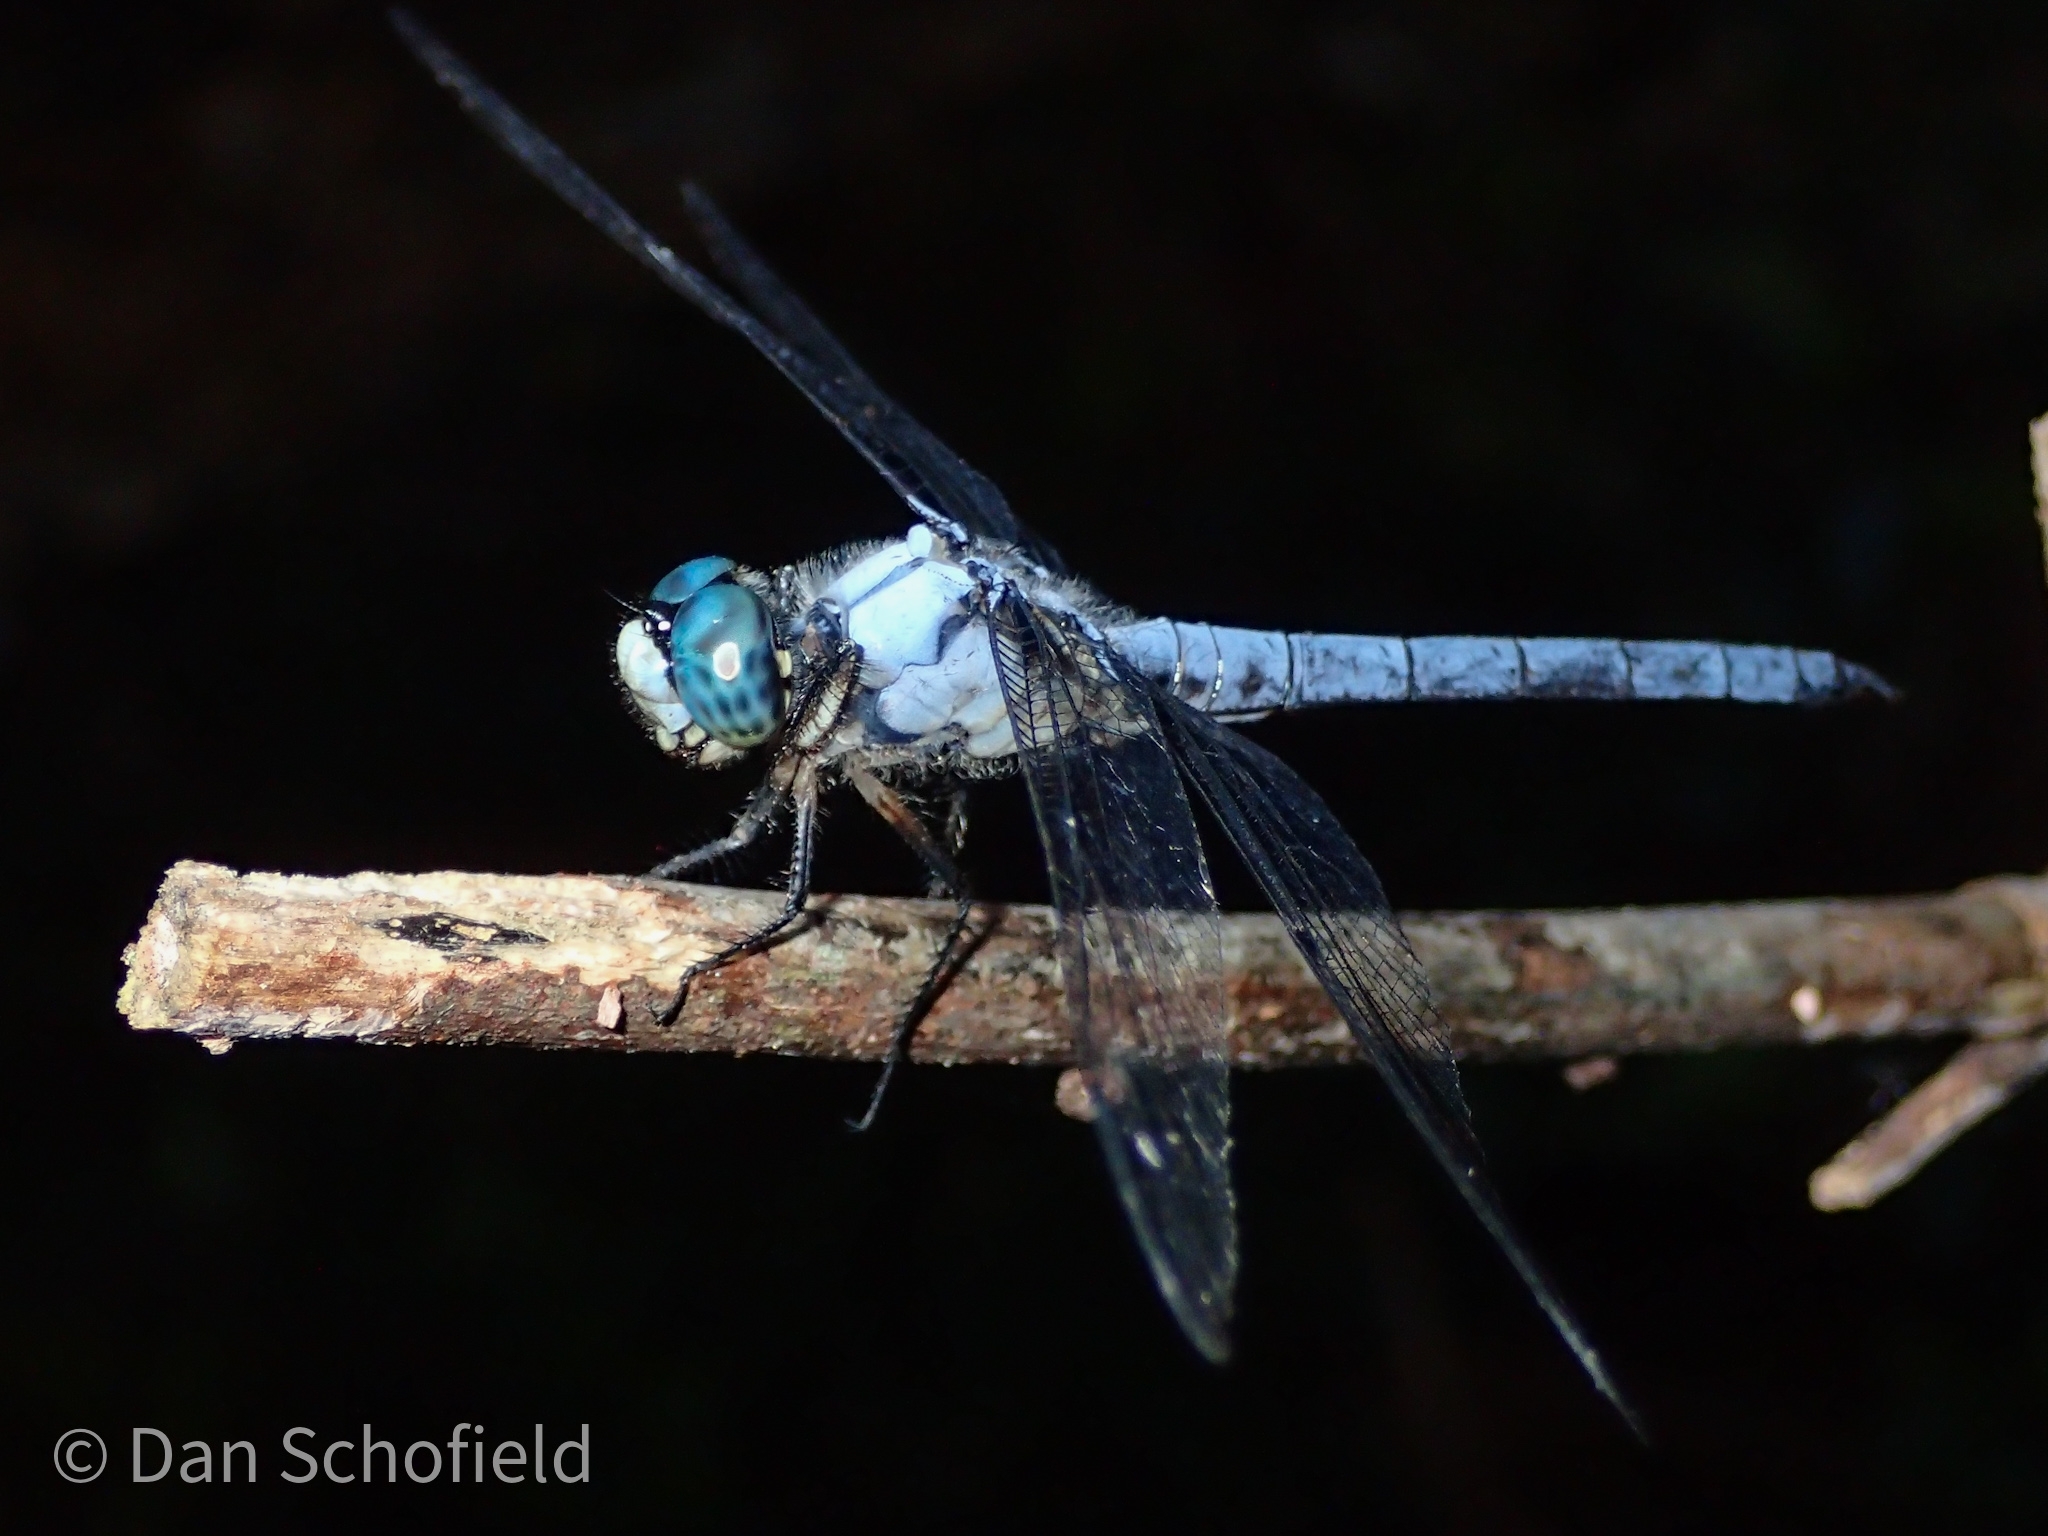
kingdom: Animalia
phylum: Arthropoda
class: Insecta
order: Odonata
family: Libellulidae
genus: Libellula
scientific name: Libellula vibrans
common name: Great blue skimmer
